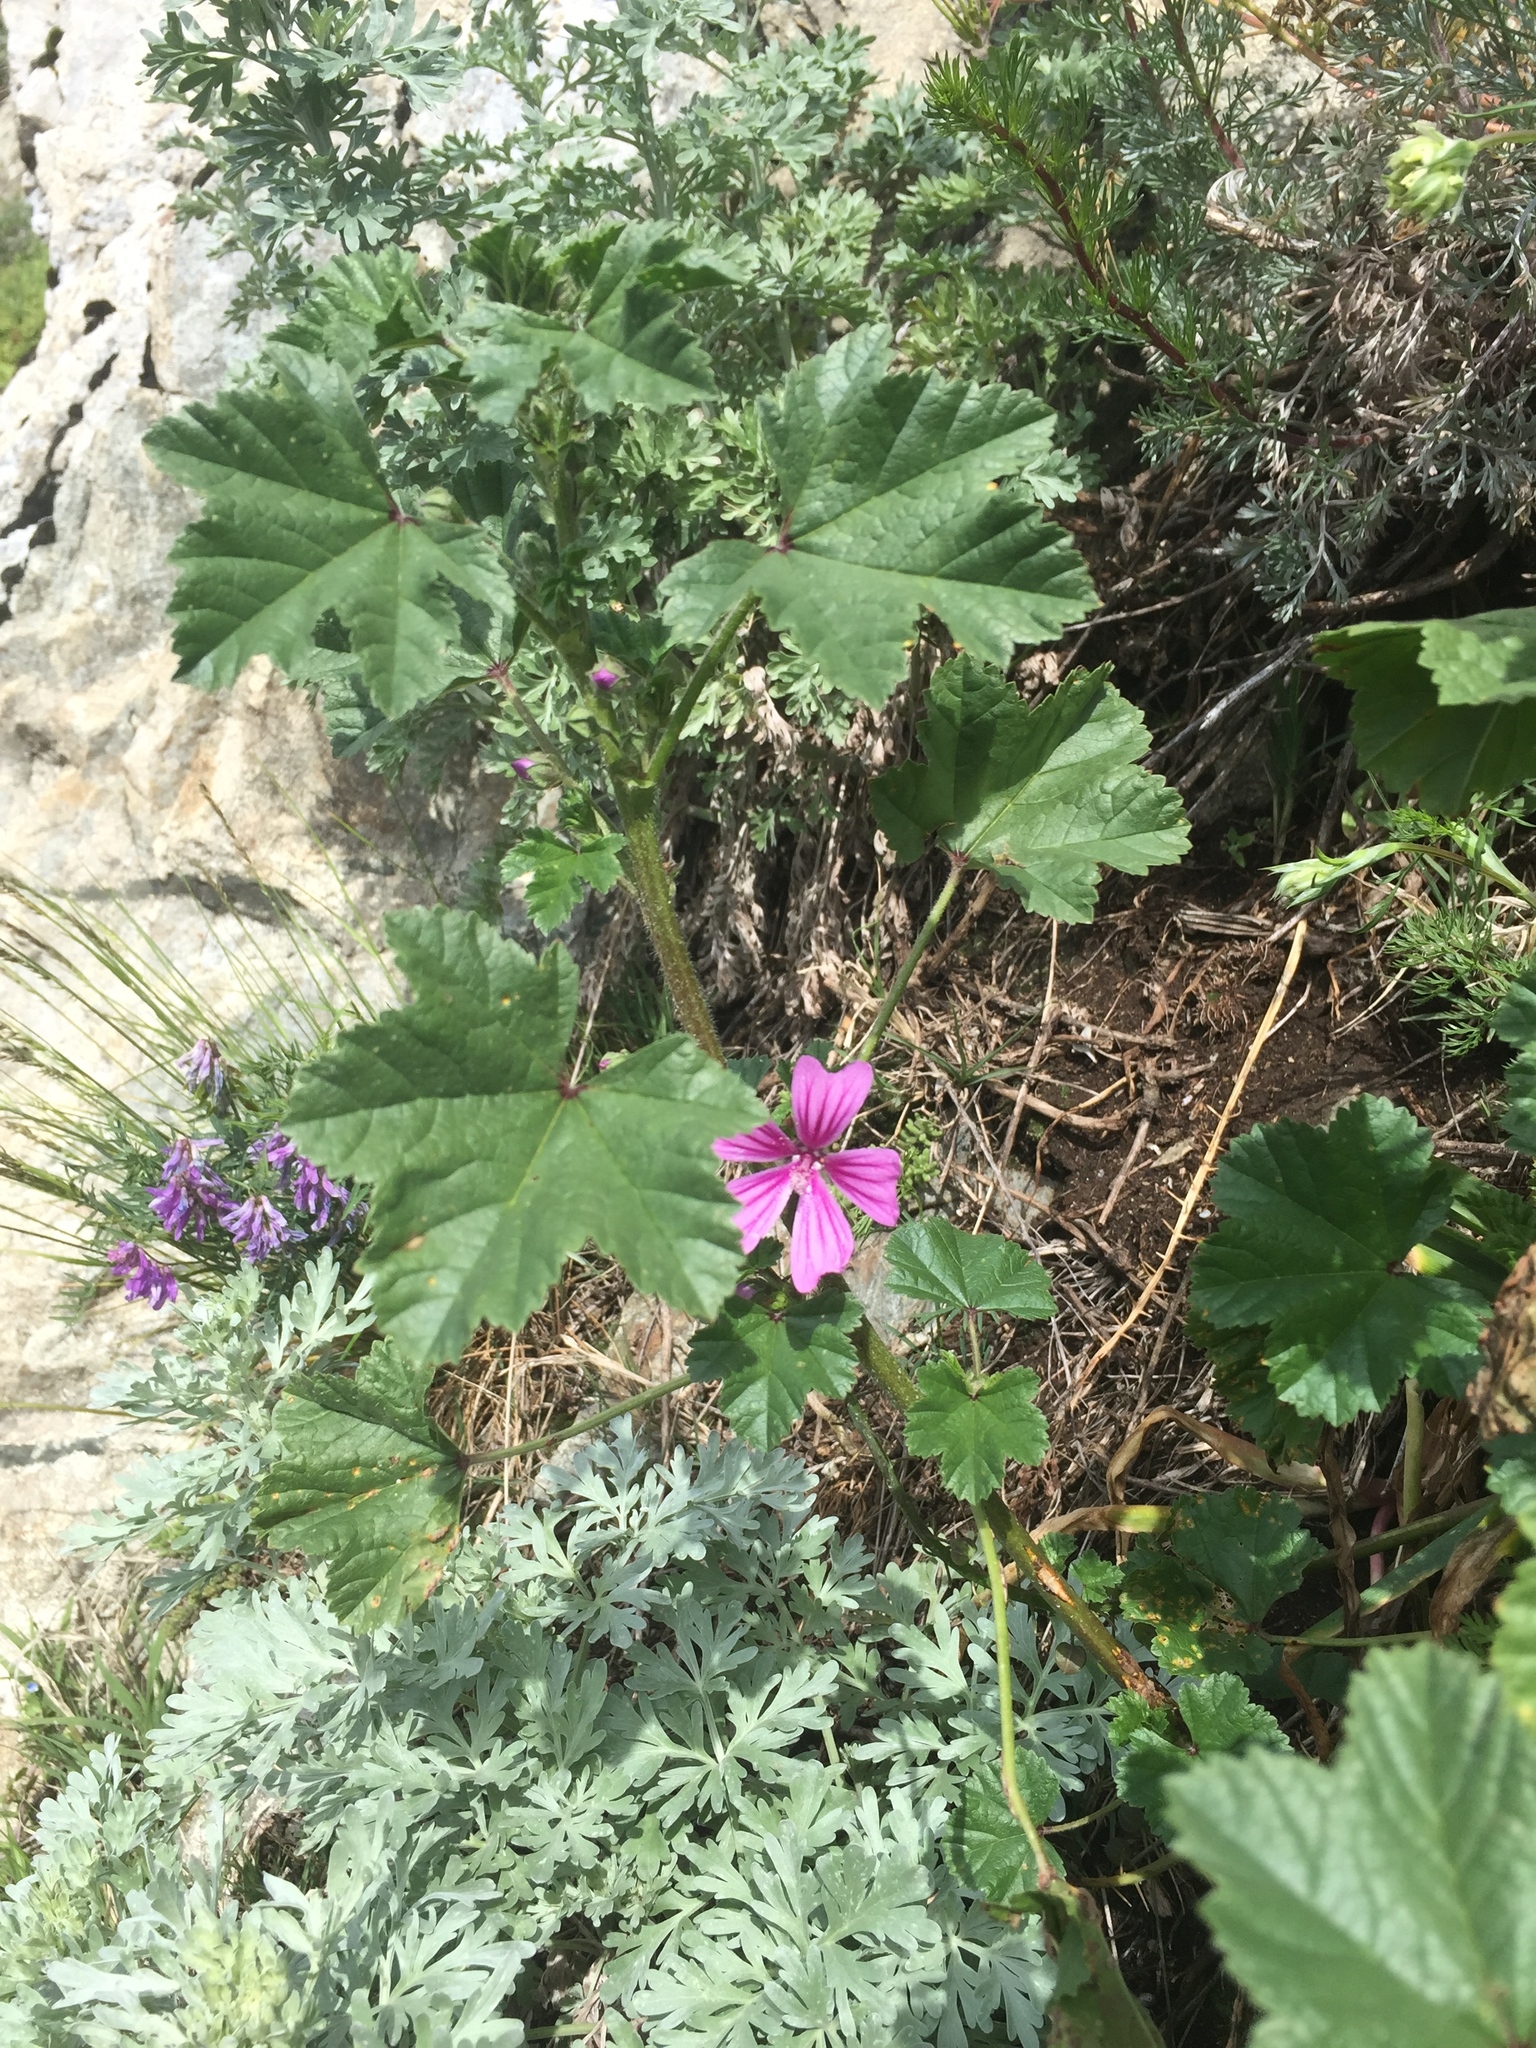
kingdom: Plantae
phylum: Tracheophyta
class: Magnoliopsida
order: Malvales
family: Malvaceae
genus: Malva
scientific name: Malva sylvestris
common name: Common mallow
